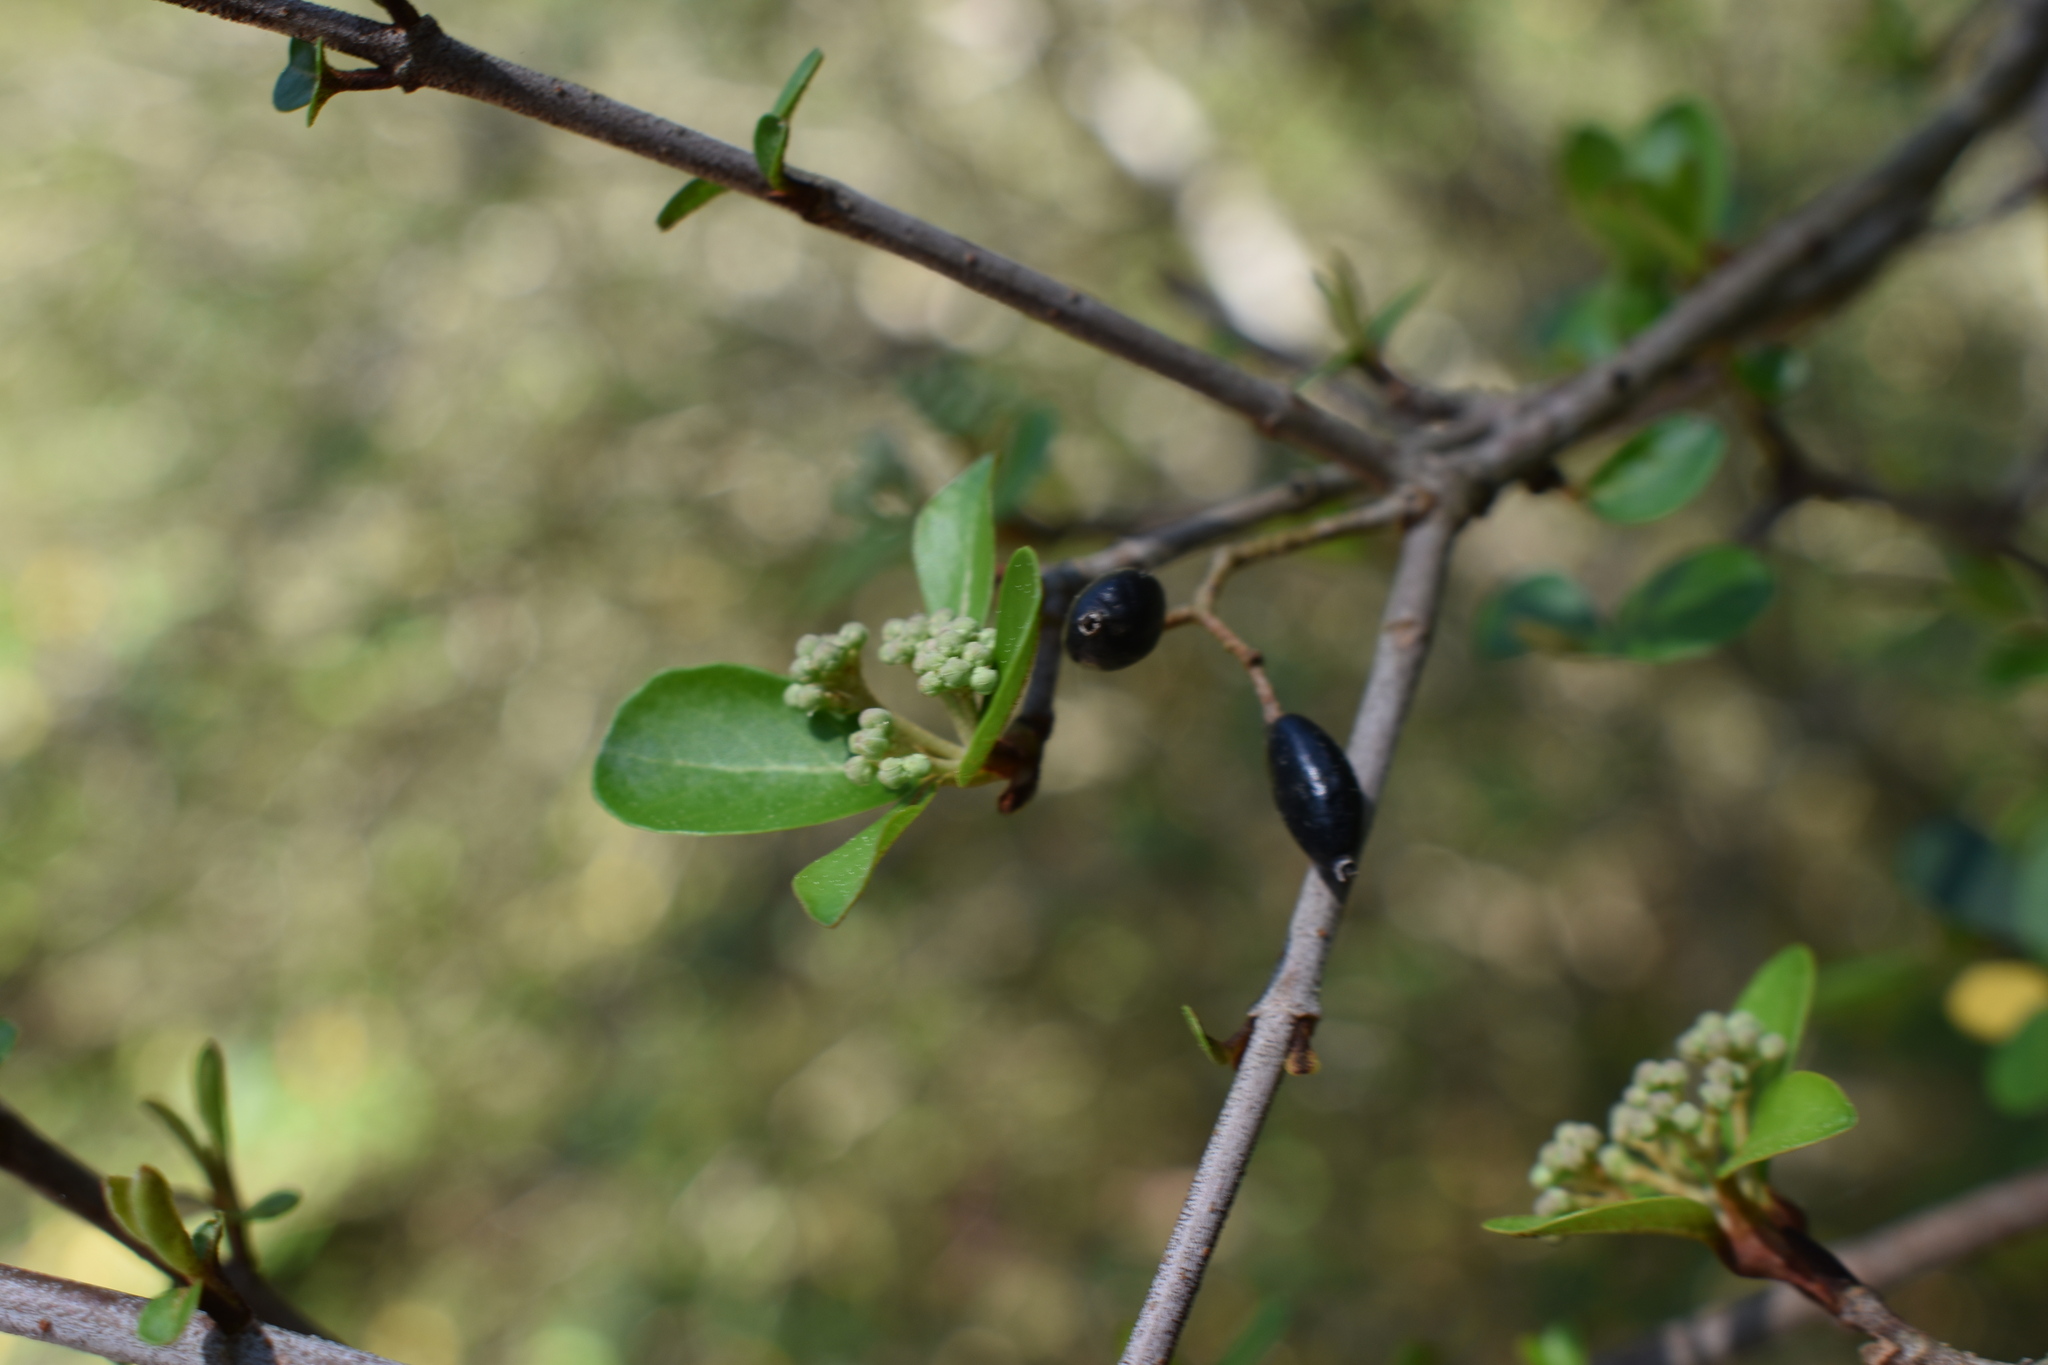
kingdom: Plantae
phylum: Tracheophyta
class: Magnoliopsida
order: Dipsacales
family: Viburnaceae
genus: Viburnum
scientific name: Viburnum obovatum
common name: Walter's viburnum
